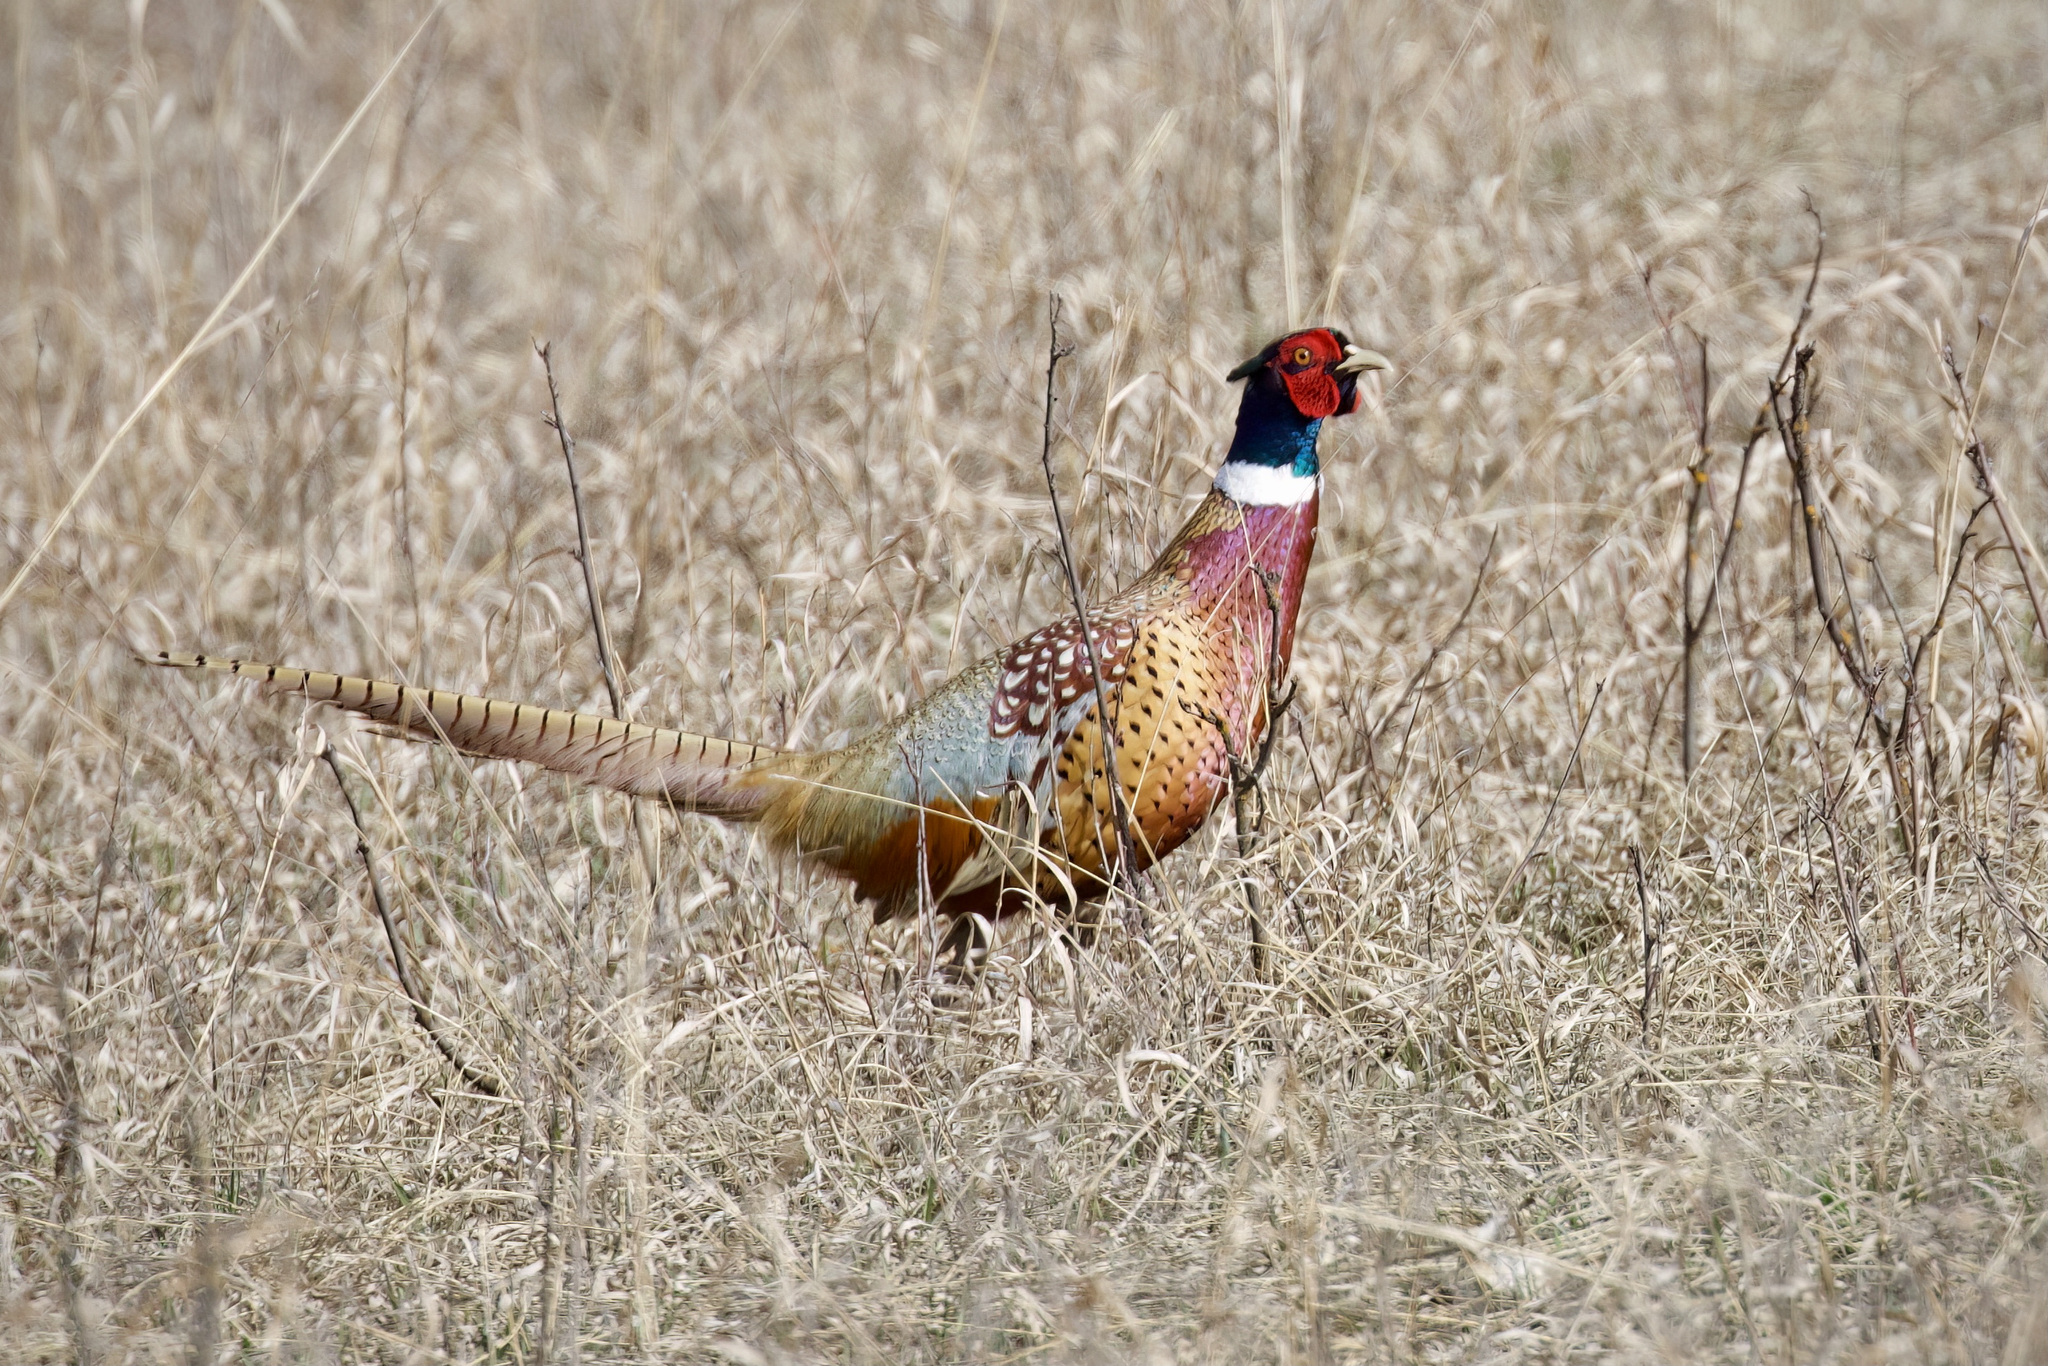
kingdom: Animalia
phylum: Chordata
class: Aves
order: Galliformes
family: Phasianidae
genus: Phasianus
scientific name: Phasianus colchicus
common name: Common pheasant
